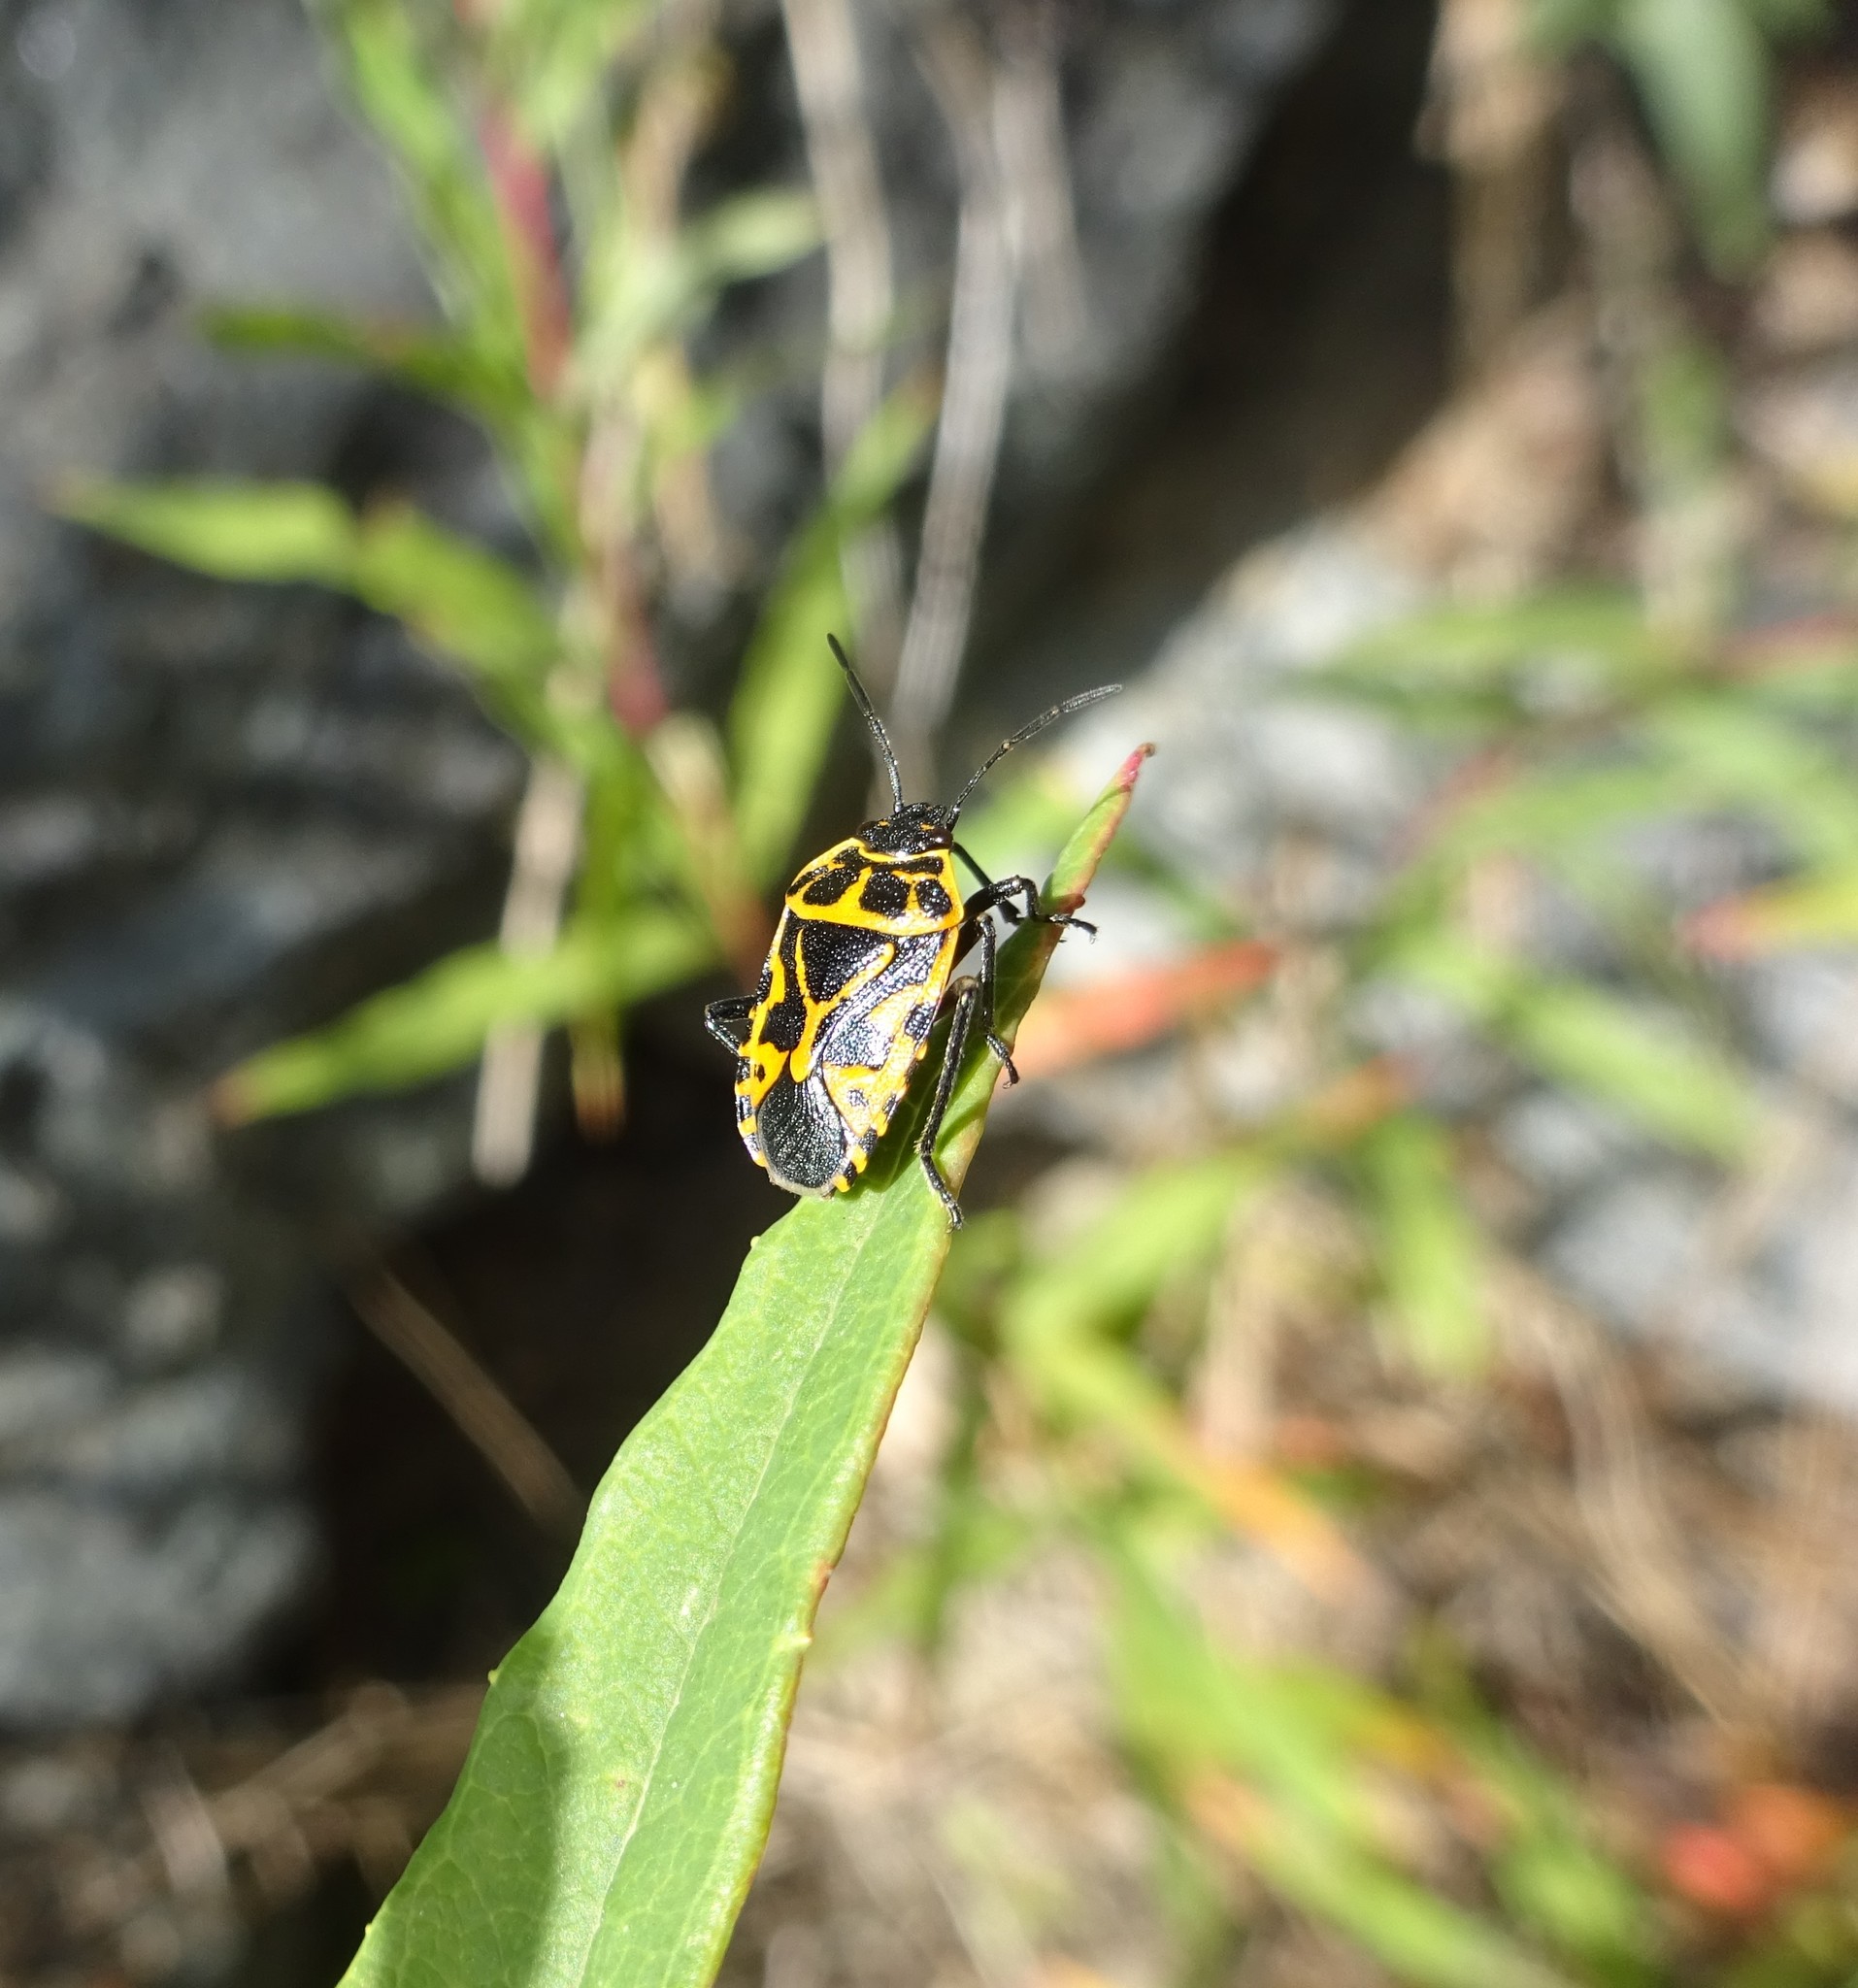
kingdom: Animalia
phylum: Arthropoda
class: Insecta
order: Hemiptera
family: Pentatomidae
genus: Eurydema
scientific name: Eurydema ventralis
